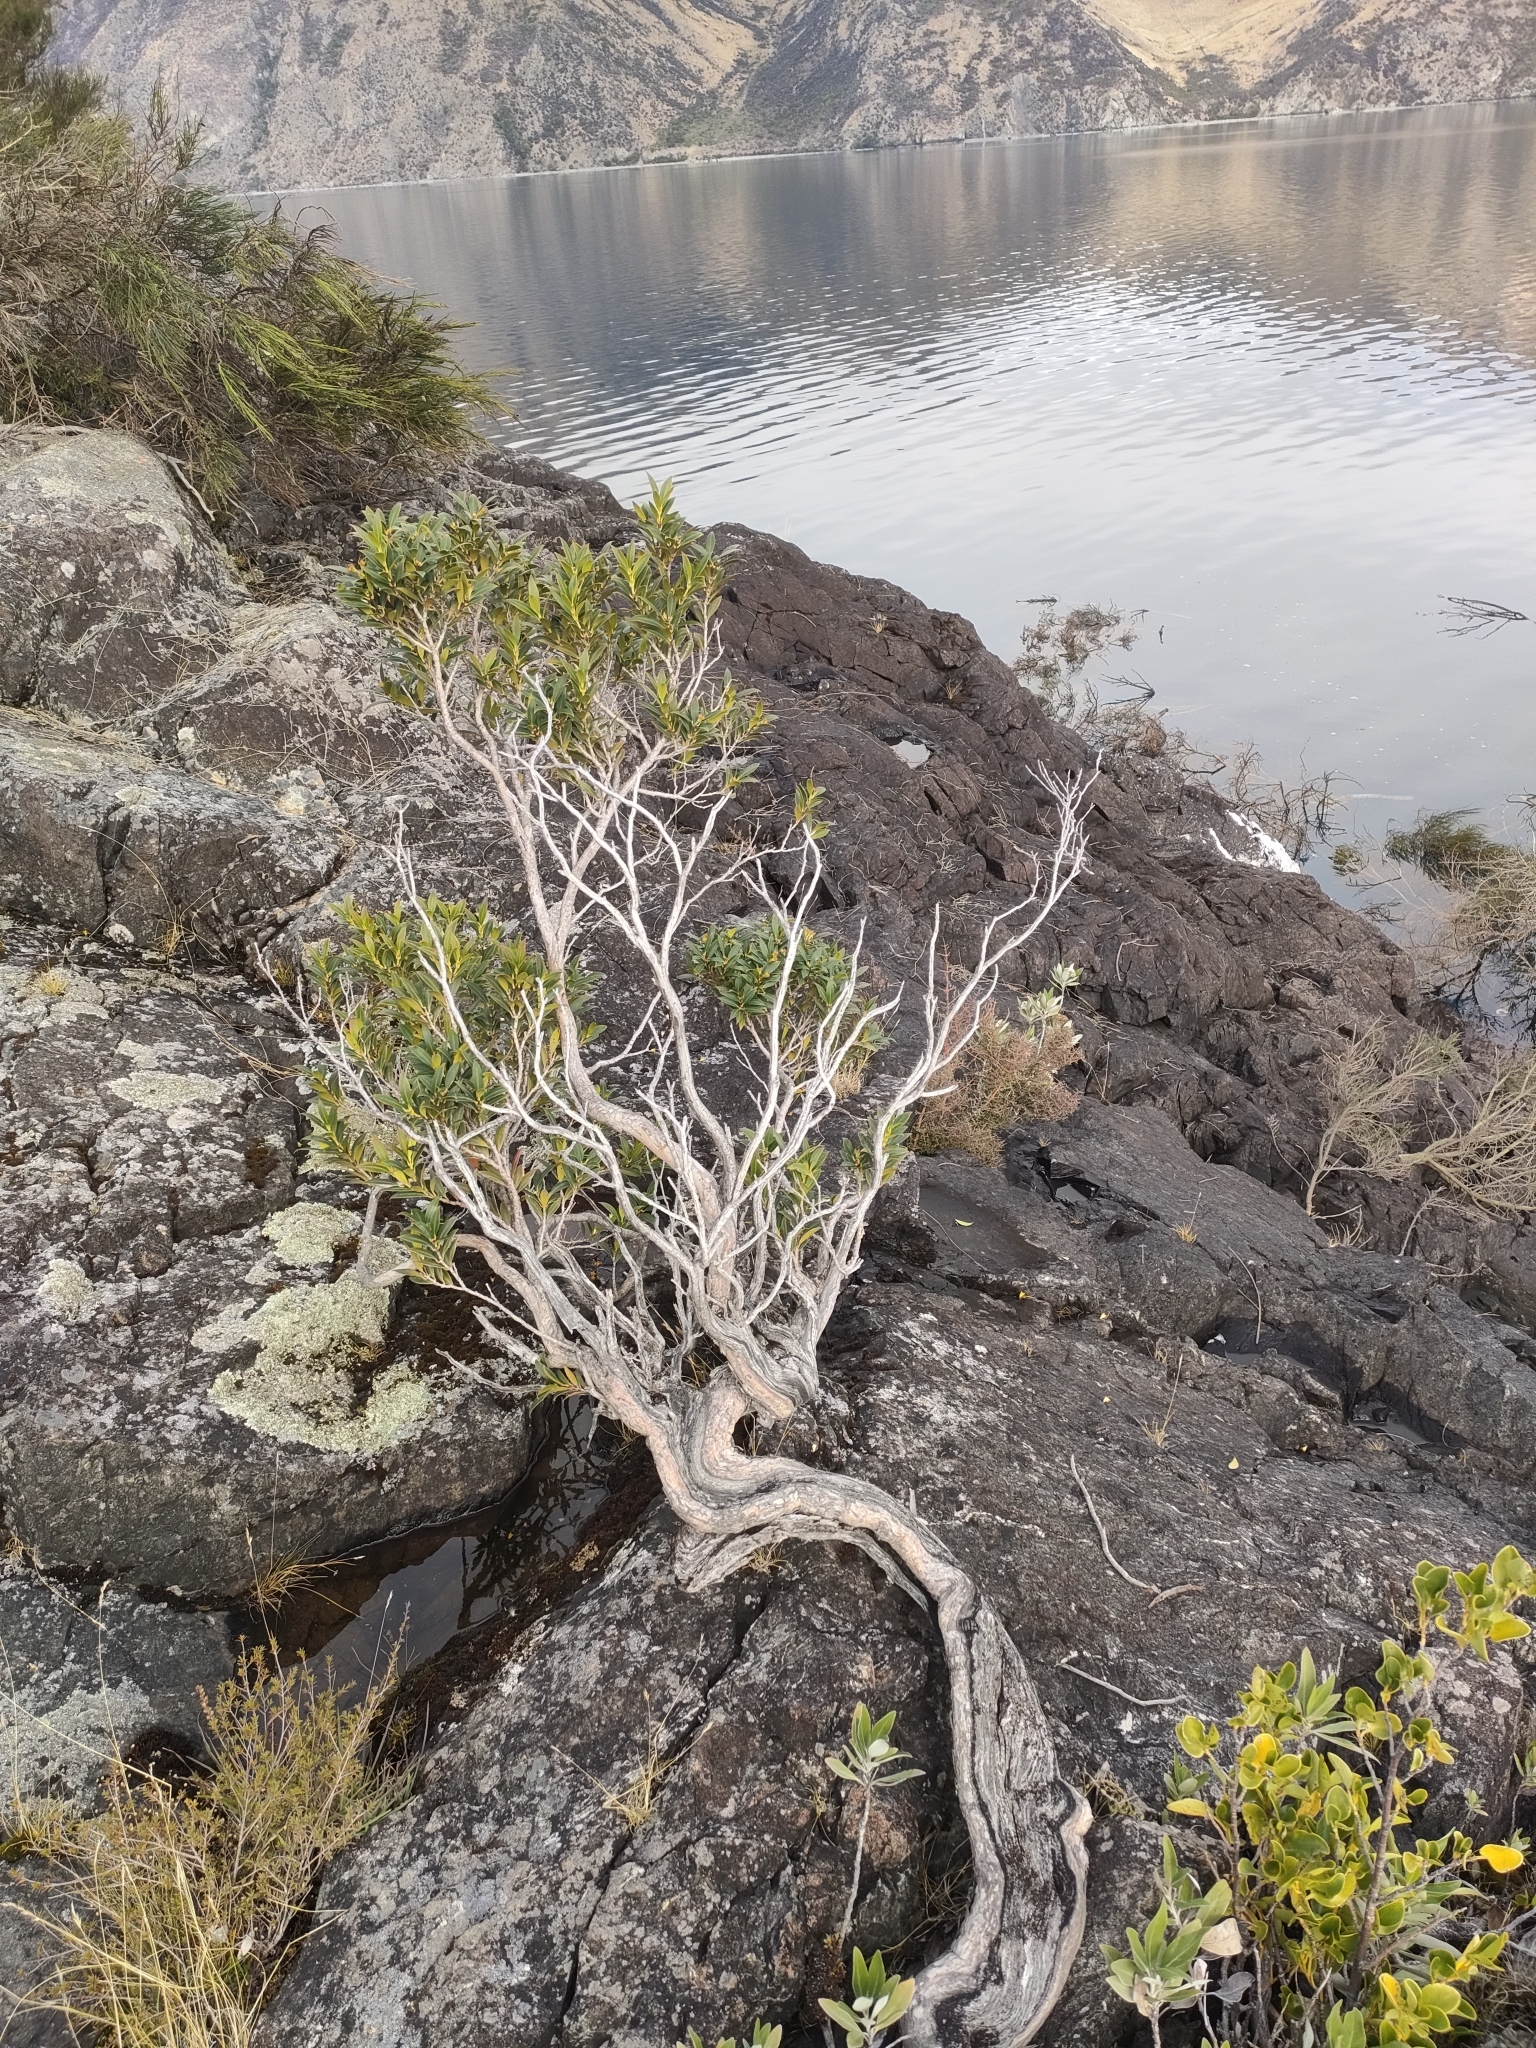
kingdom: Plantae
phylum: Tracheophyta
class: Magnoliopsida
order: Myrtales
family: Myrtaceae
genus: Metrosideros
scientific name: Metrosideros umbellata
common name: Southern rata
